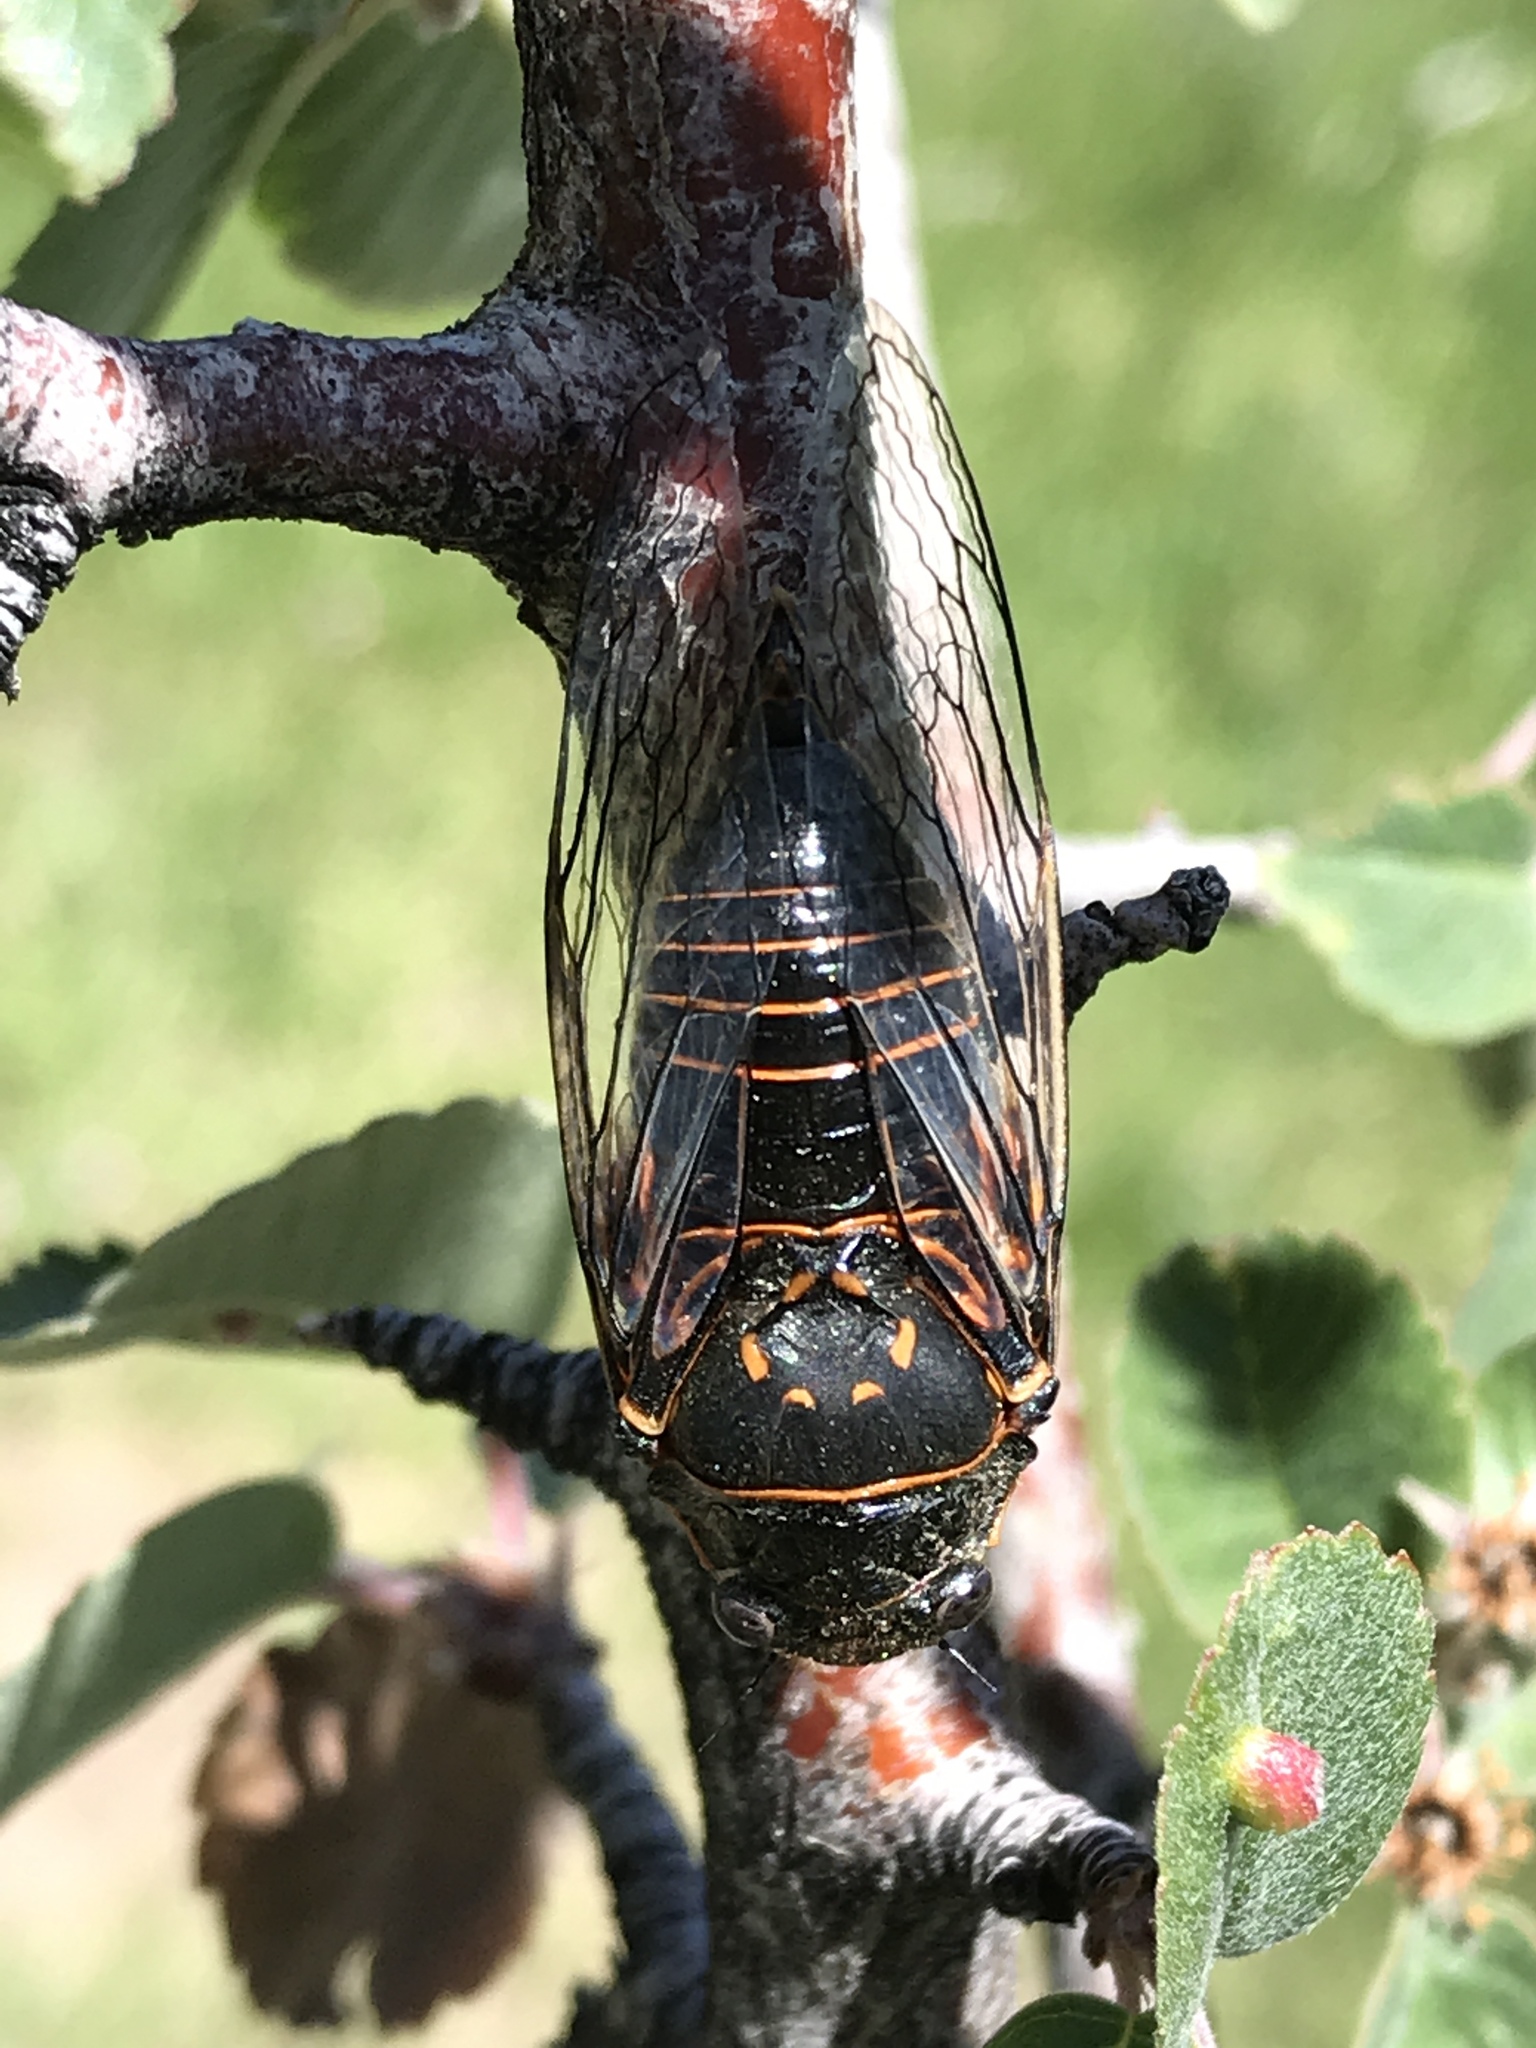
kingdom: Animalia
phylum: Arthropoda
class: Insecta
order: Hemiptera
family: Cicadidae
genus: Okanagana
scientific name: Okanagana bella
